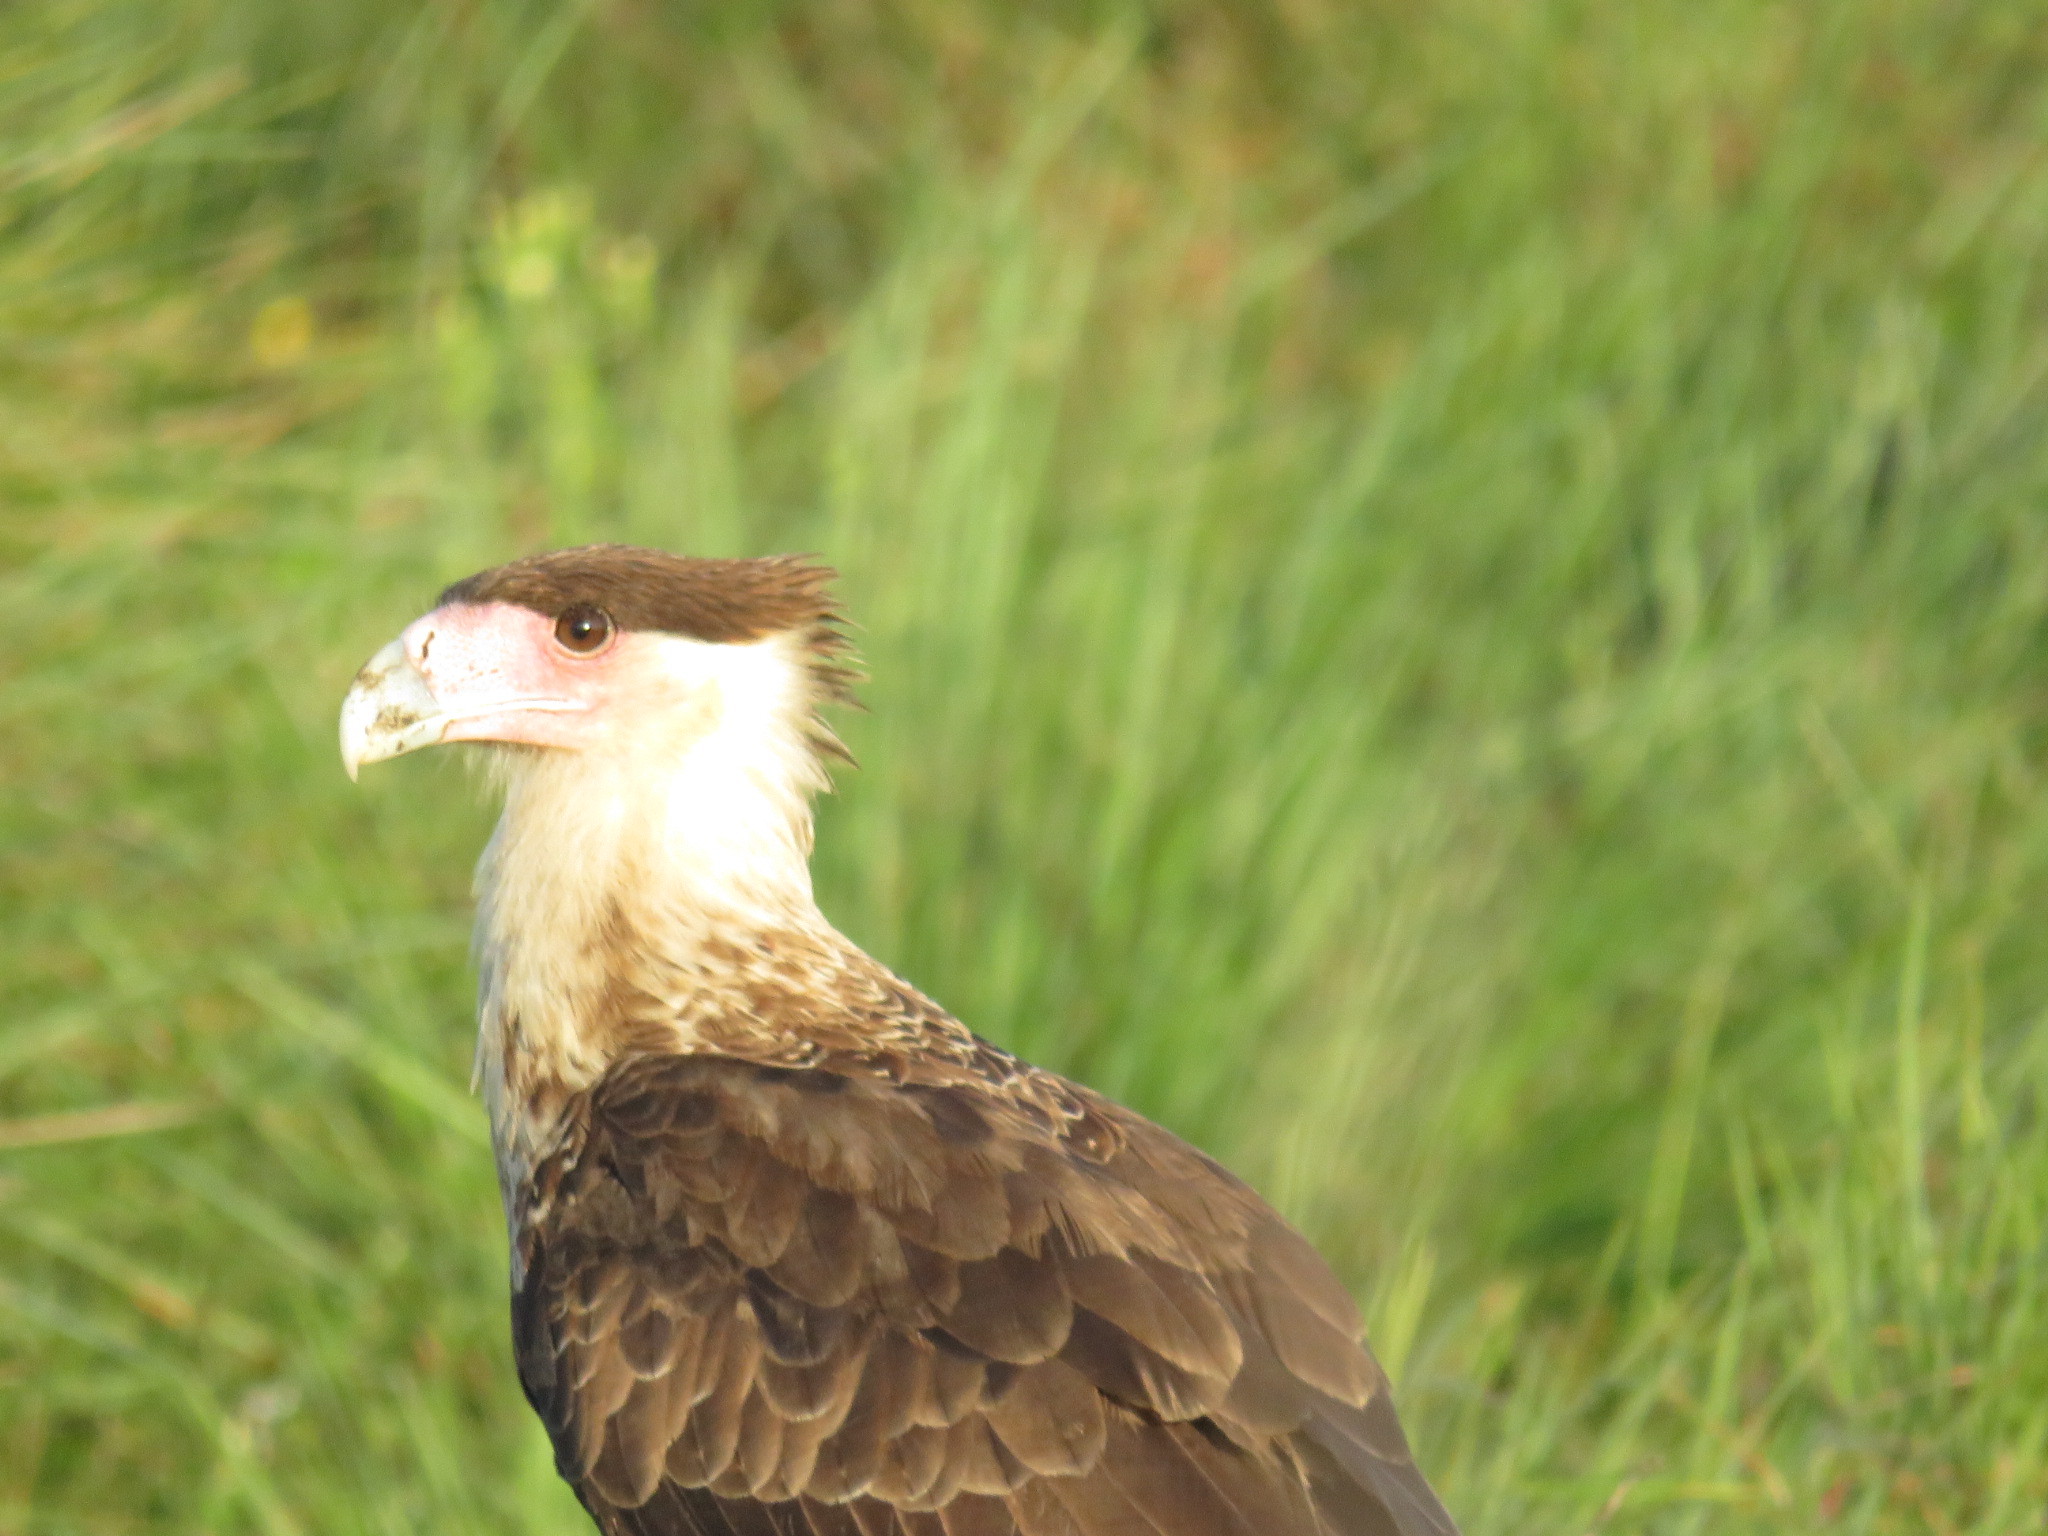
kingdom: Animalia
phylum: Chordata
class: Aves
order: Falconiformes
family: Falconidae
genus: Caracara
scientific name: Caracara plancus
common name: Southern caracara
